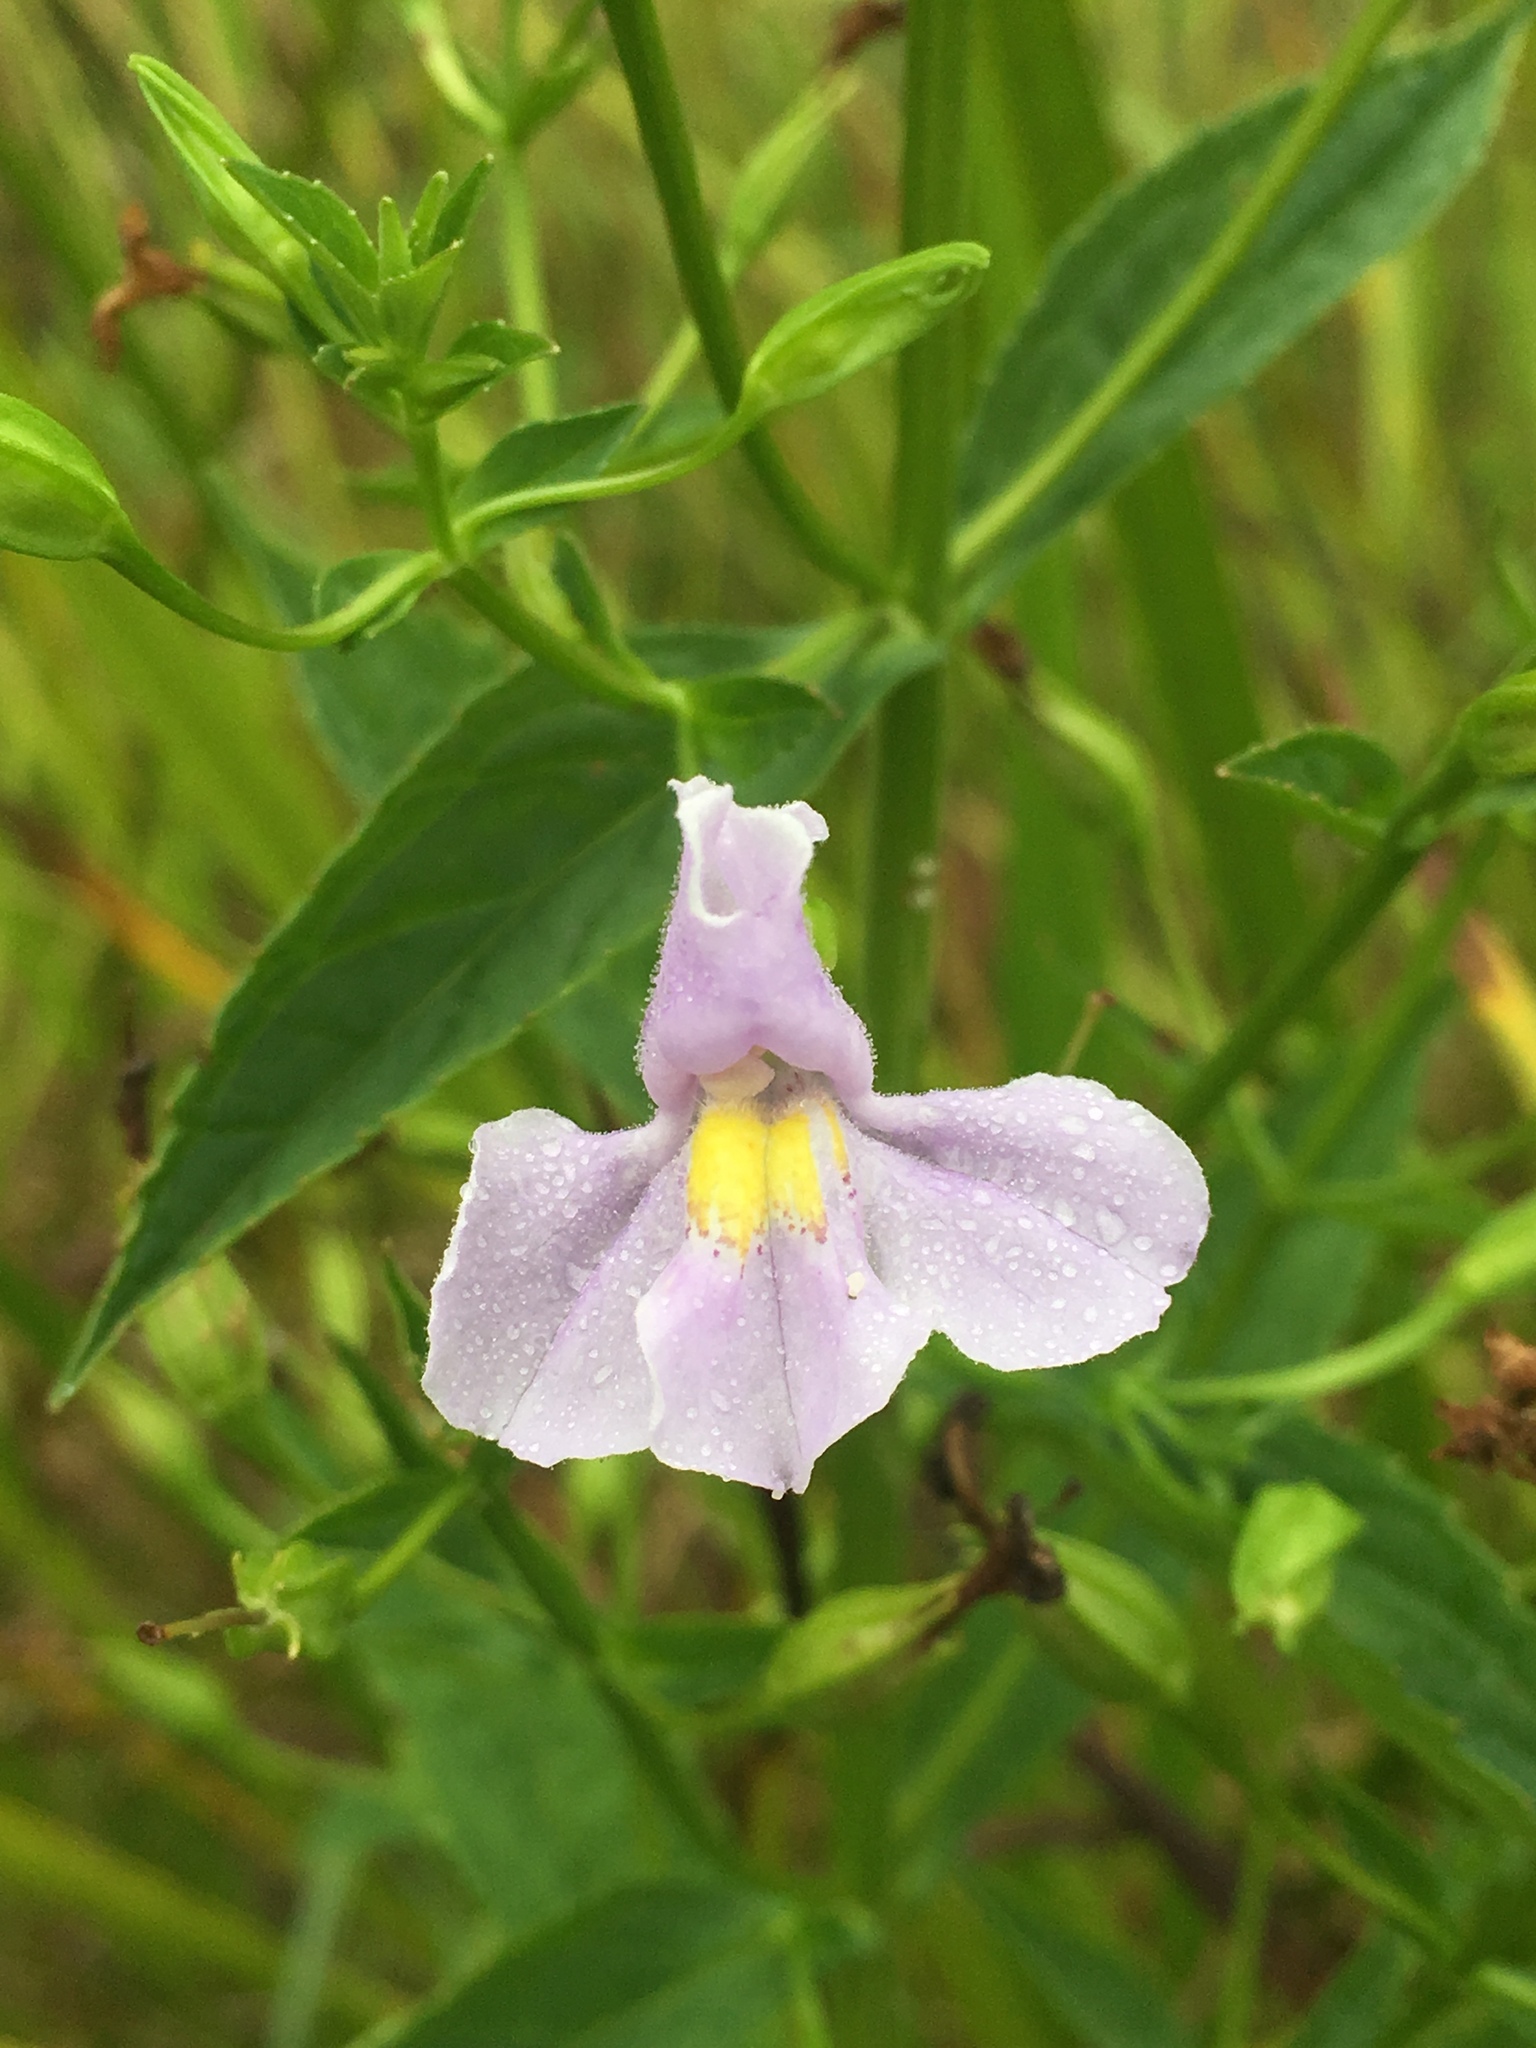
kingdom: Plantae
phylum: Tracheophyta
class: Magnoliopsida
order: Lamiales
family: Phrymaceae
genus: Mimulus
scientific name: Mimulus ringens
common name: Allegheny monkeyflower
